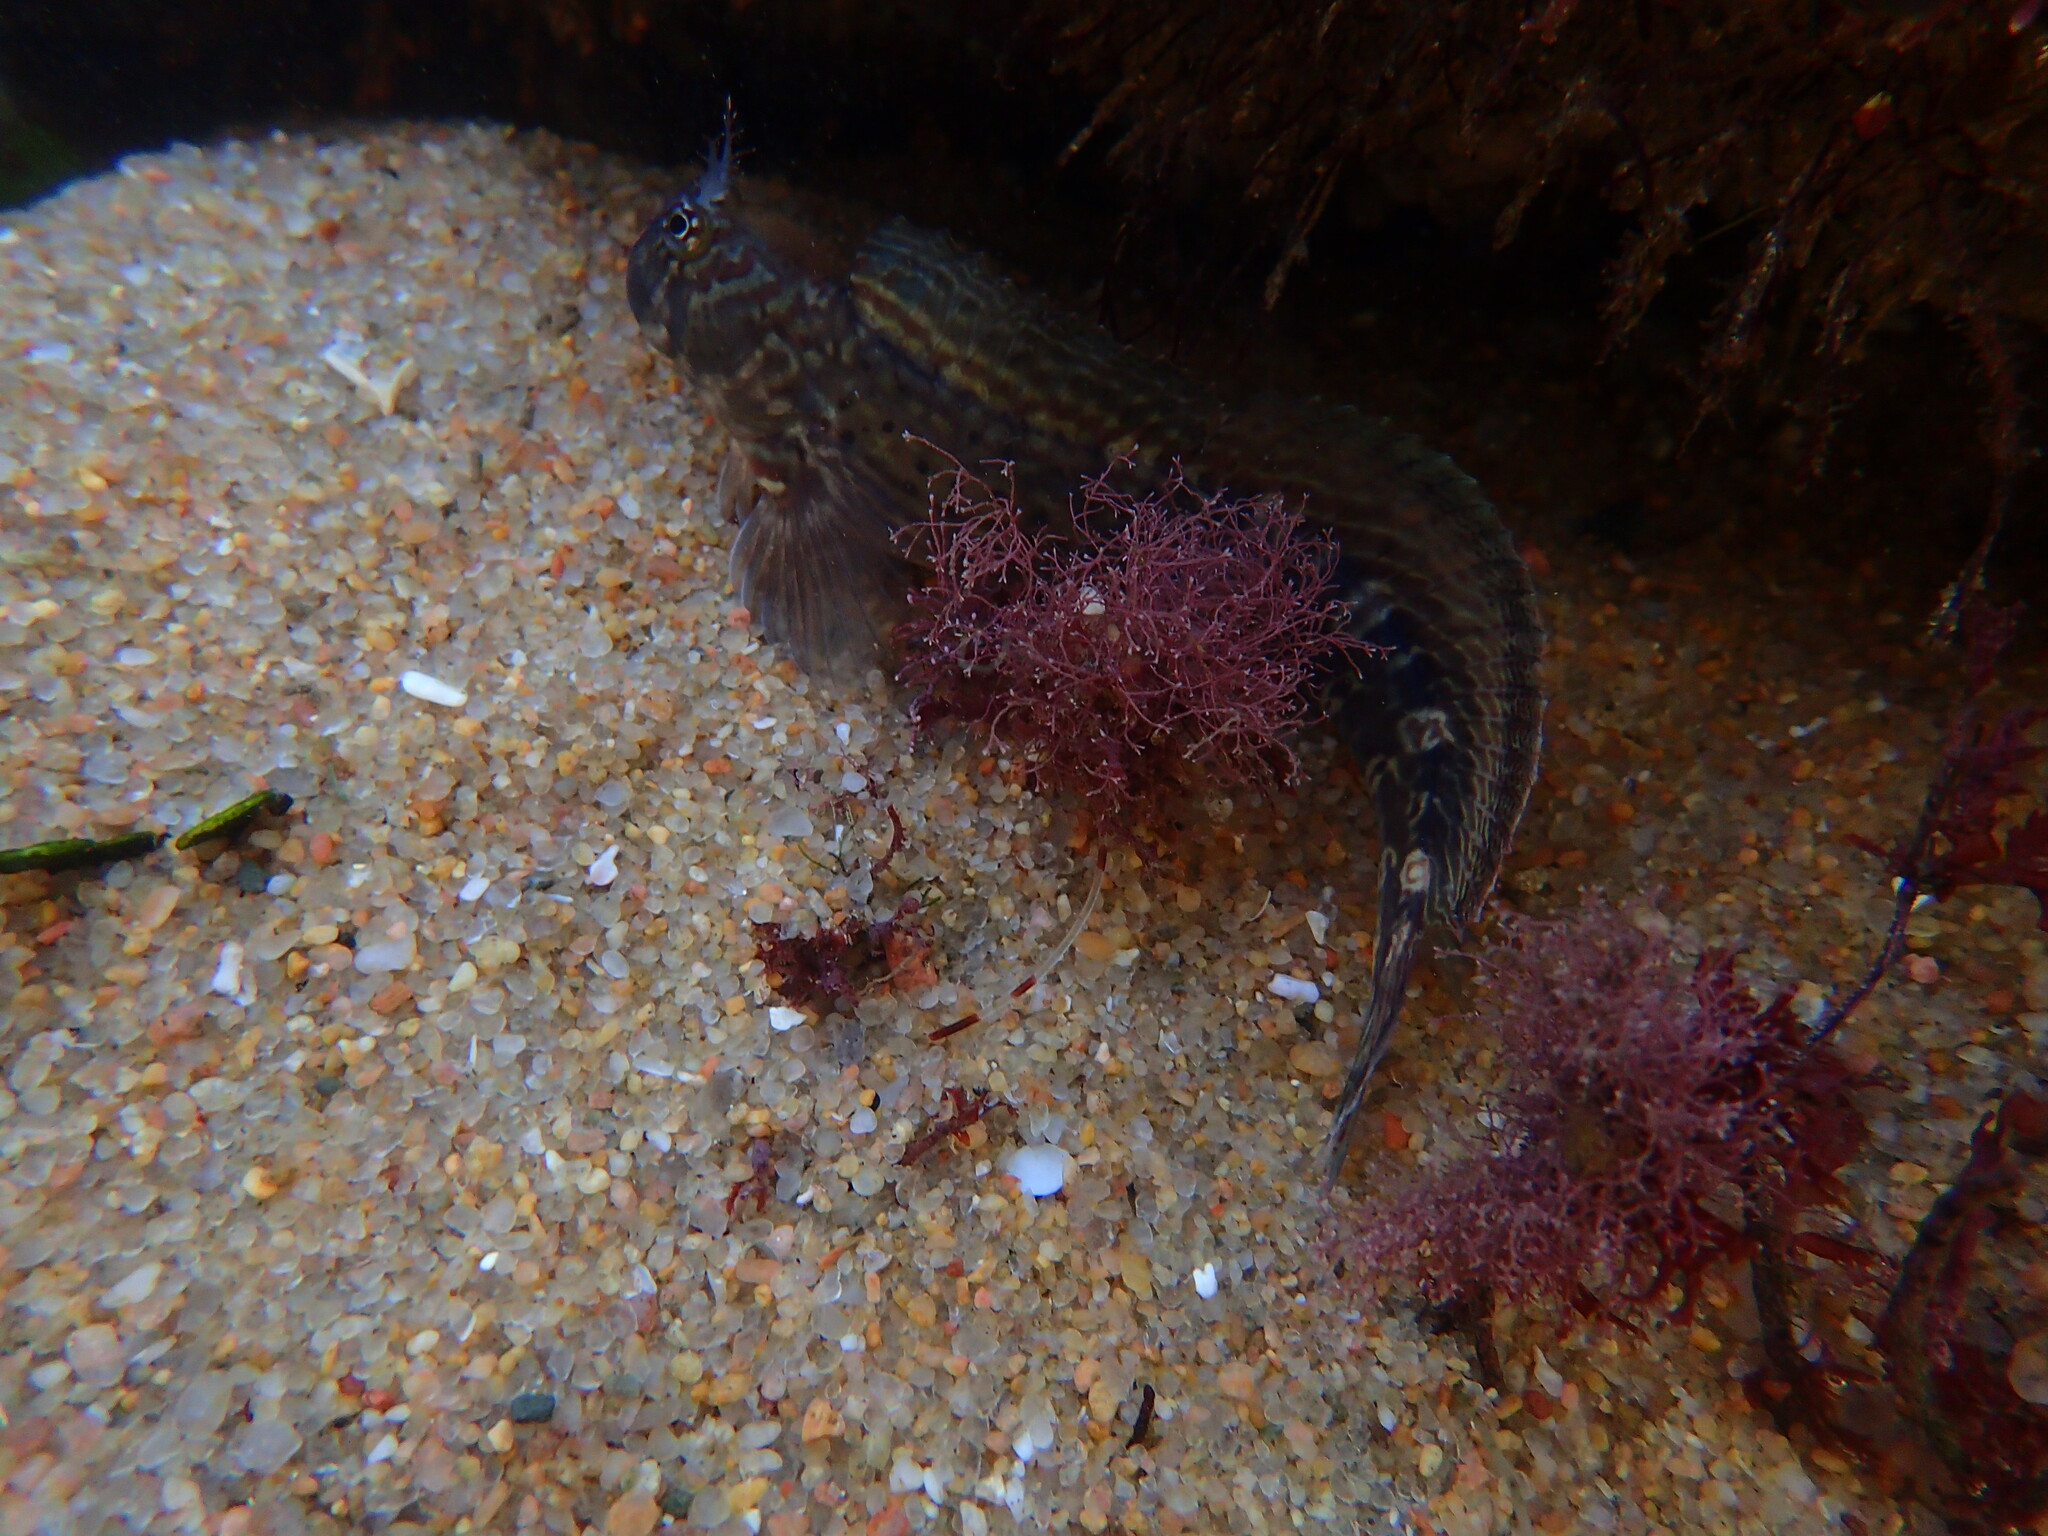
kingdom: Animalia
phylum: Chordata
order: Perciformes
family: Blenniidae
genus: Istiblennius
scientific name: Istiblennius dussumieri
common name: Dussumier's rockskipper
